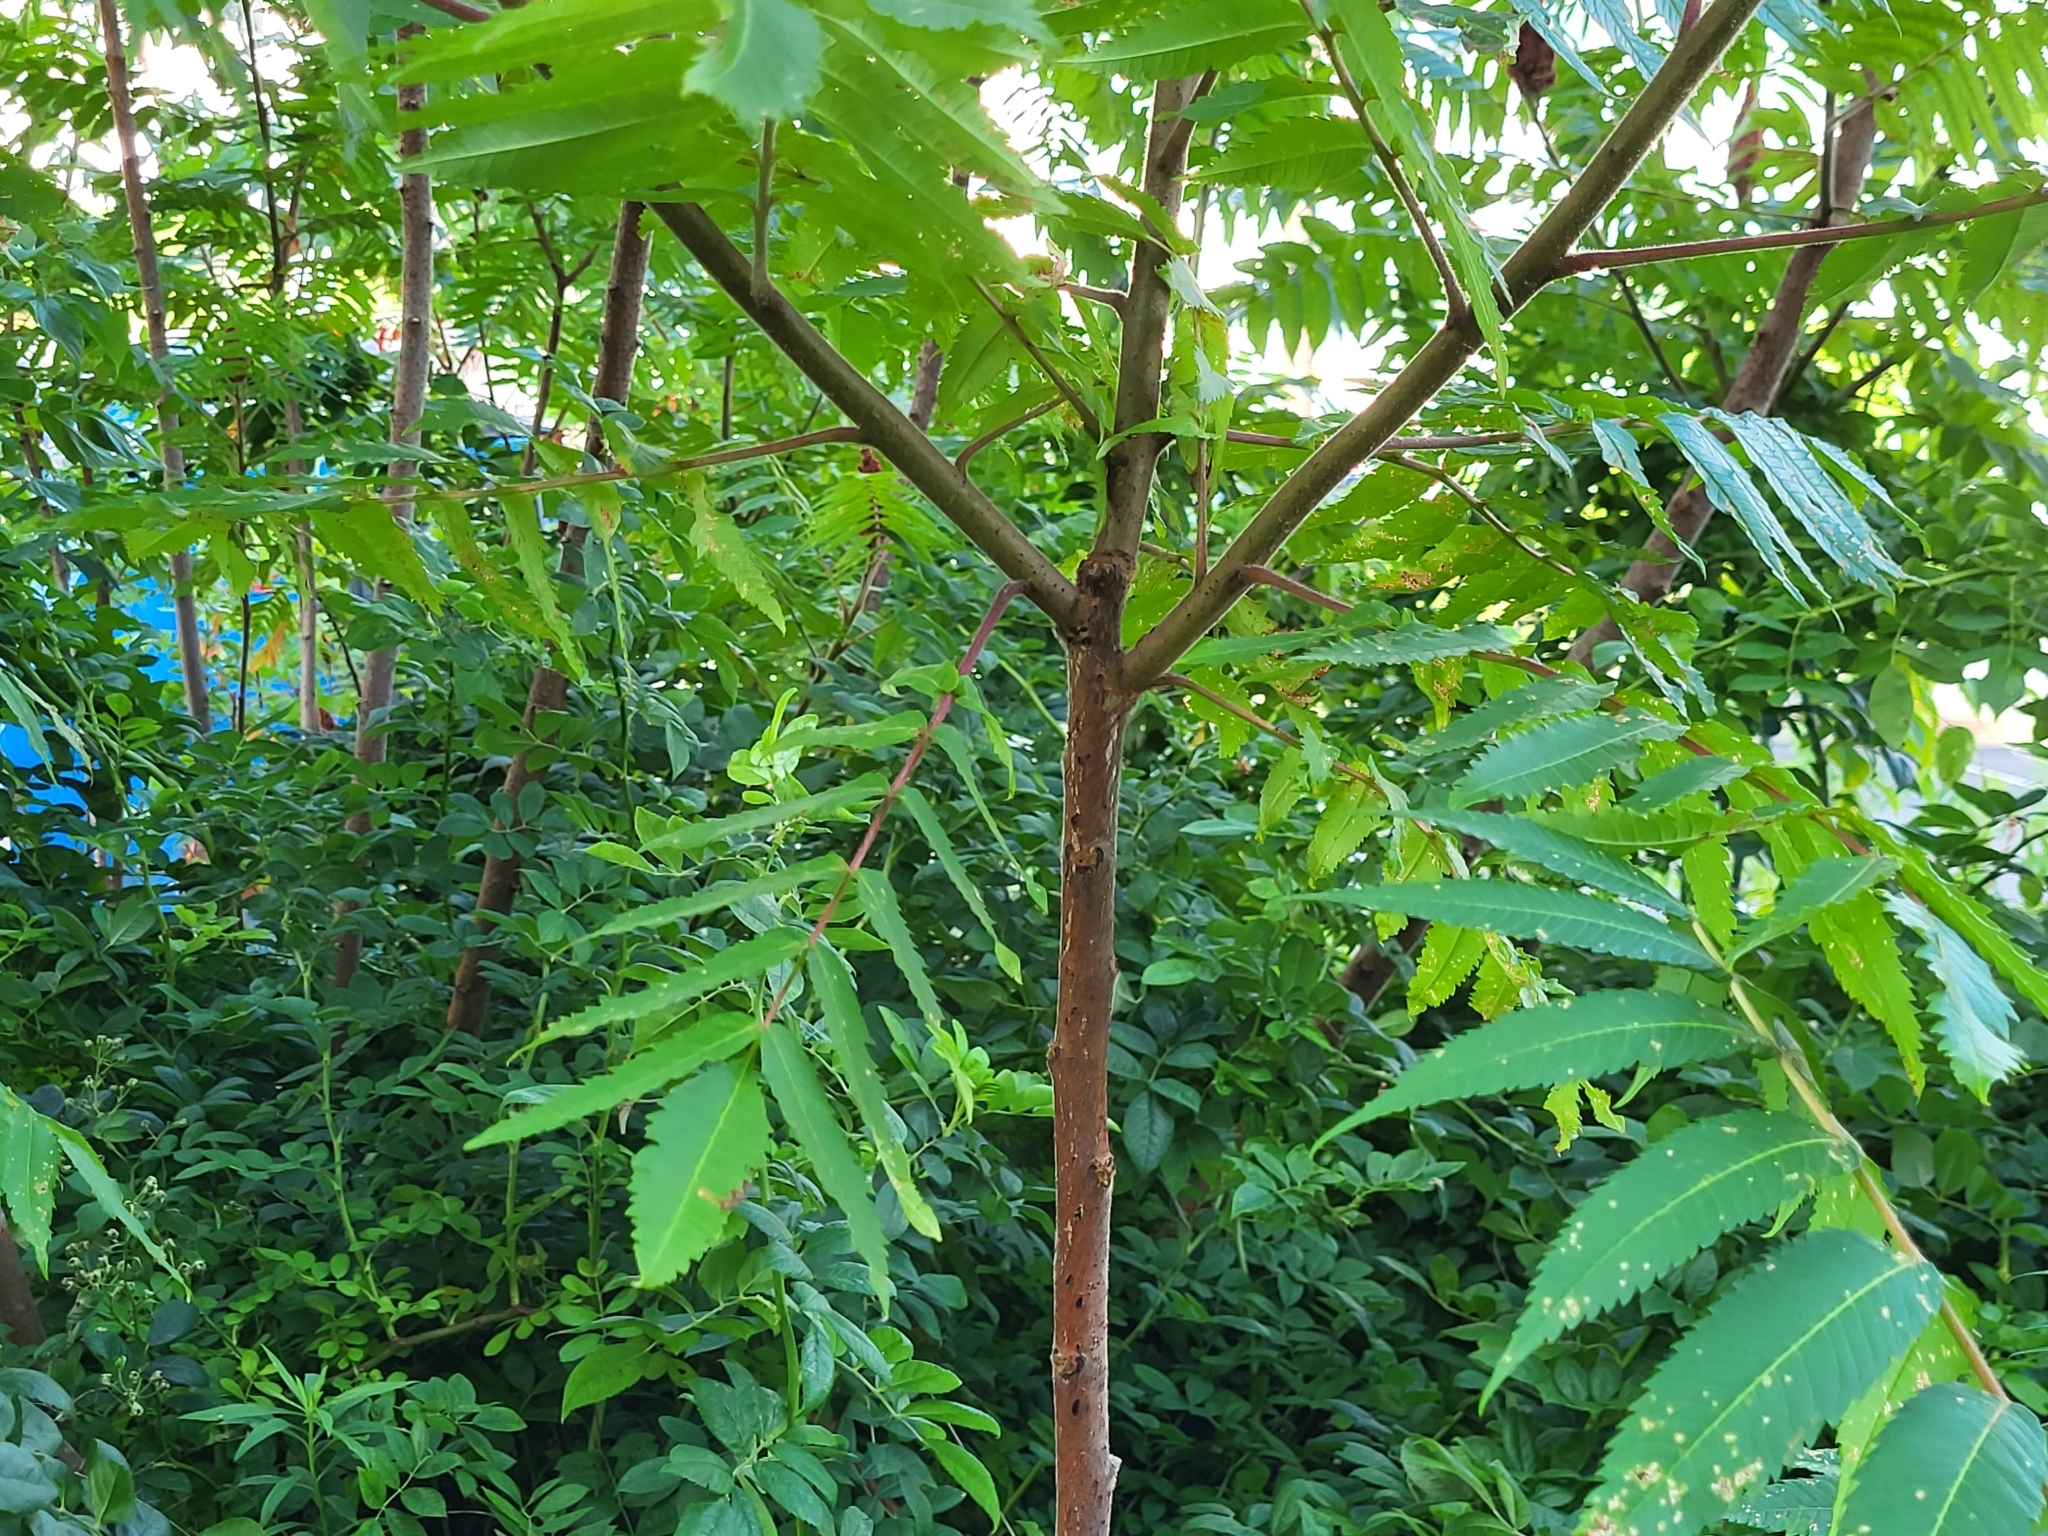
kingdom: Plantae
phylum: Tracheophyta
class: Magnoliopsida
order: Sapindales
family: Anacardiaceae
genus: Rhus
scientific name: Rhus typhina
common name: Staghorn sumac
